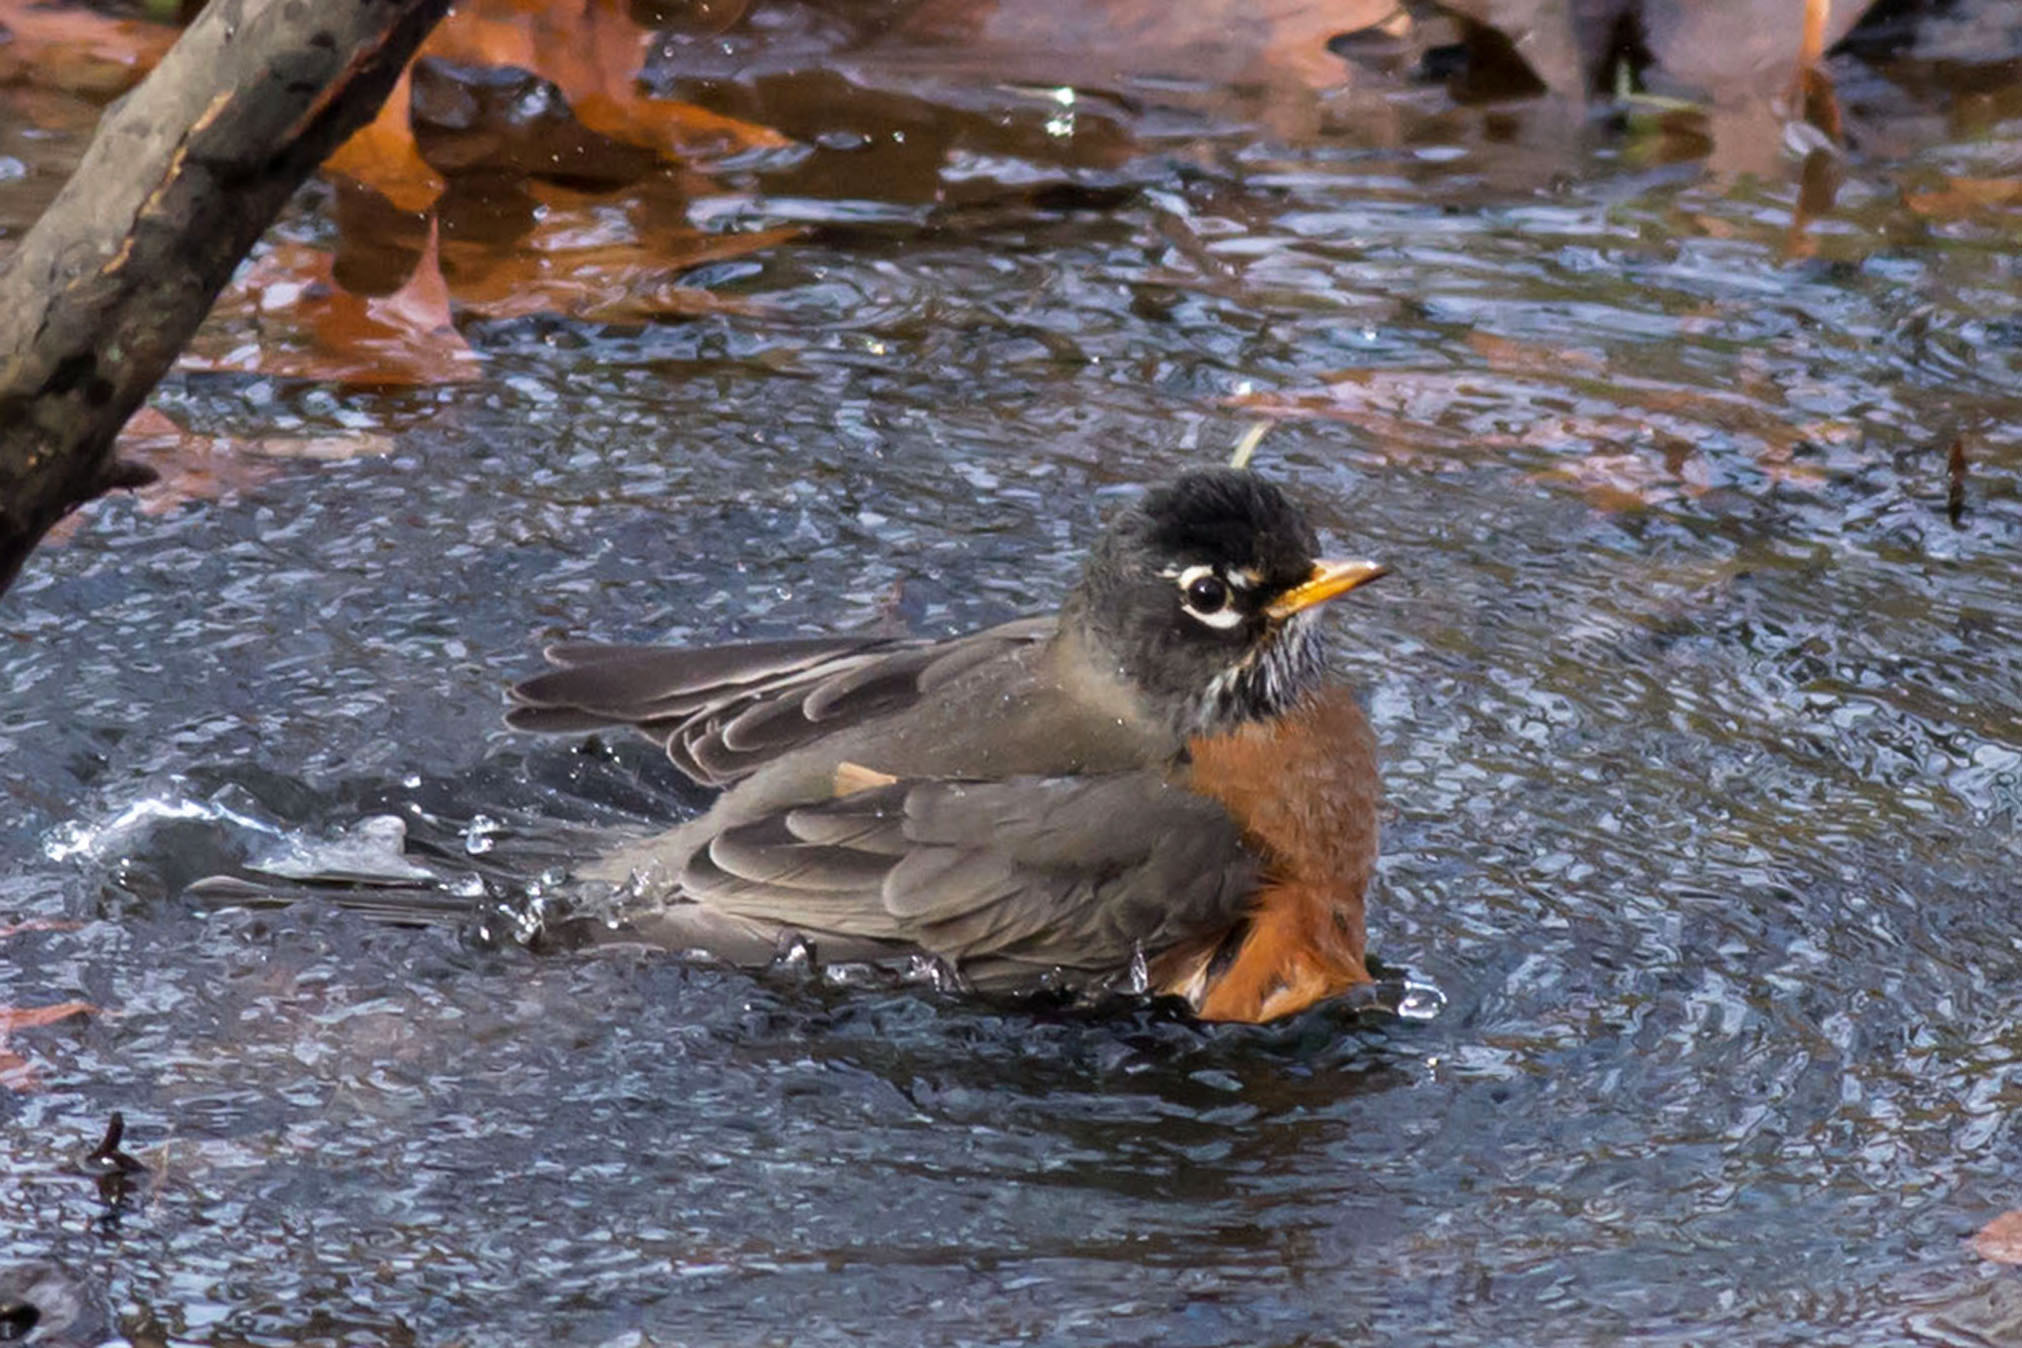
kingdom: Animalia
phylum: Chordata
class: Aves
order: Passeriformes
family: Turdidae
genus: Turdus
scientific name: Turdus migratorius
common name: American robin
